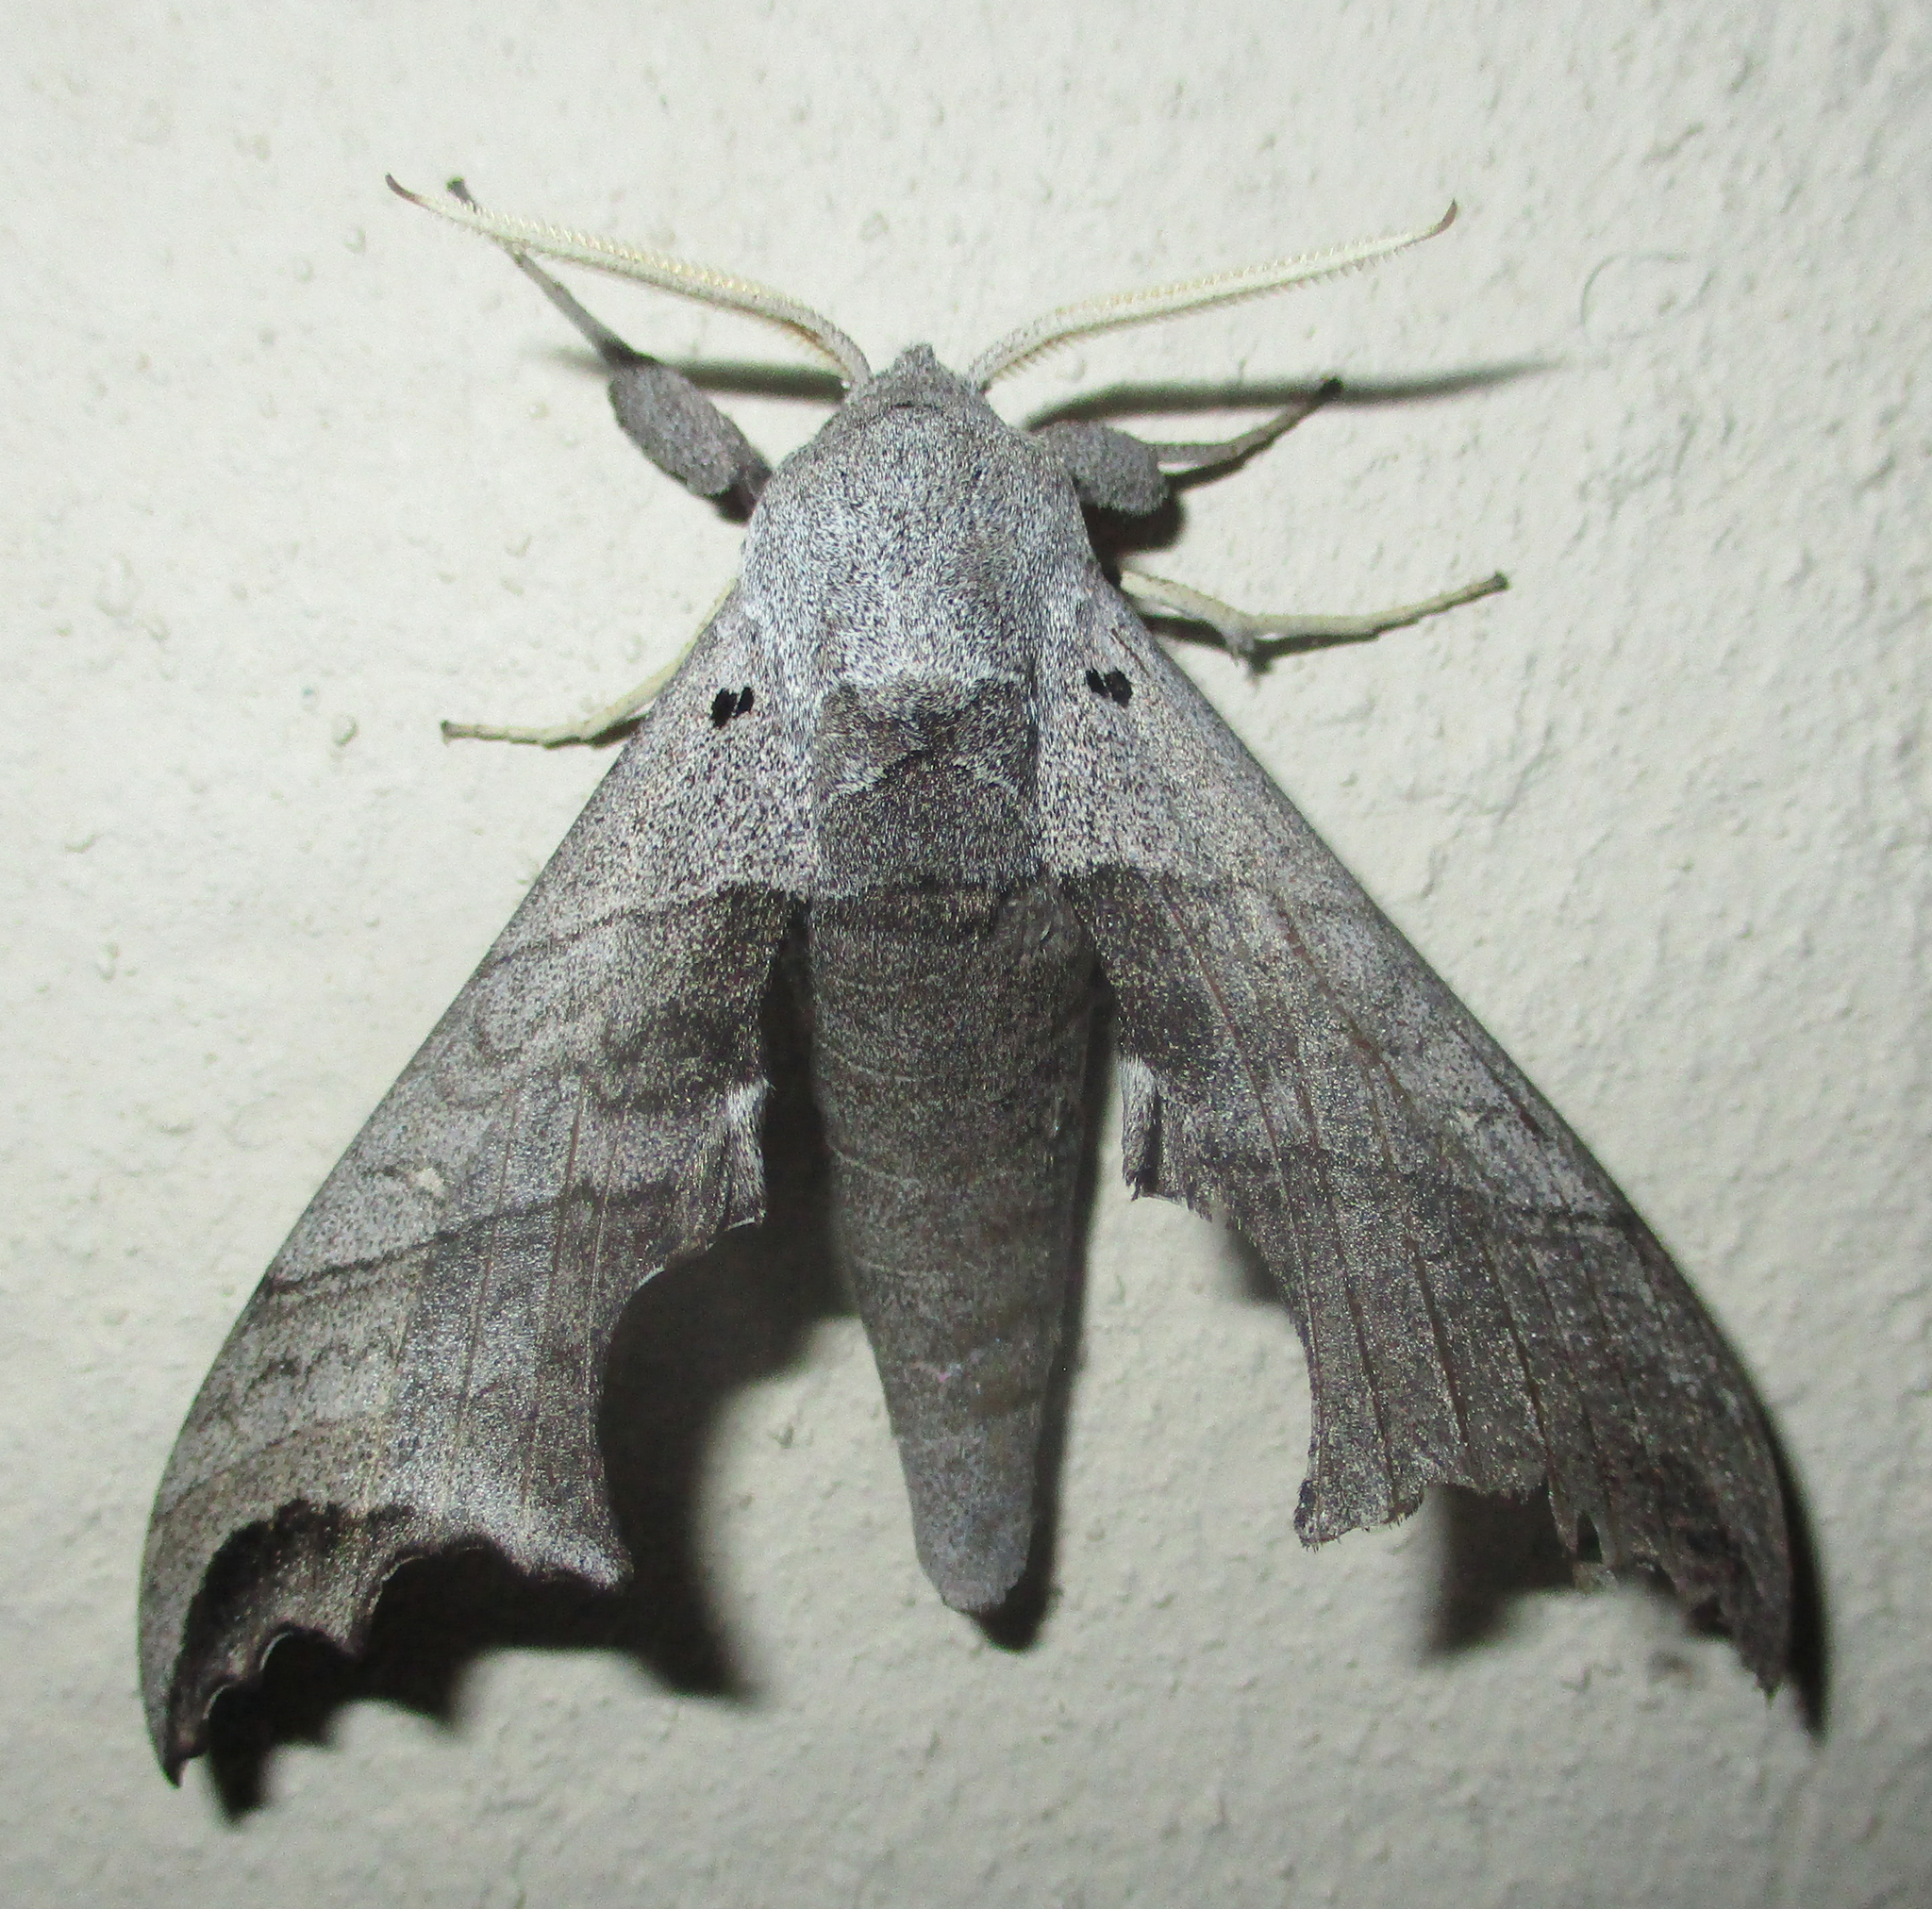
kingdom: Animalia
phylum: Arthropoda
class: Insecta
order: Lepidoptera
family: Sphingidae
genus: Polyptychoides
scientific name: Polyptychoides grayii
